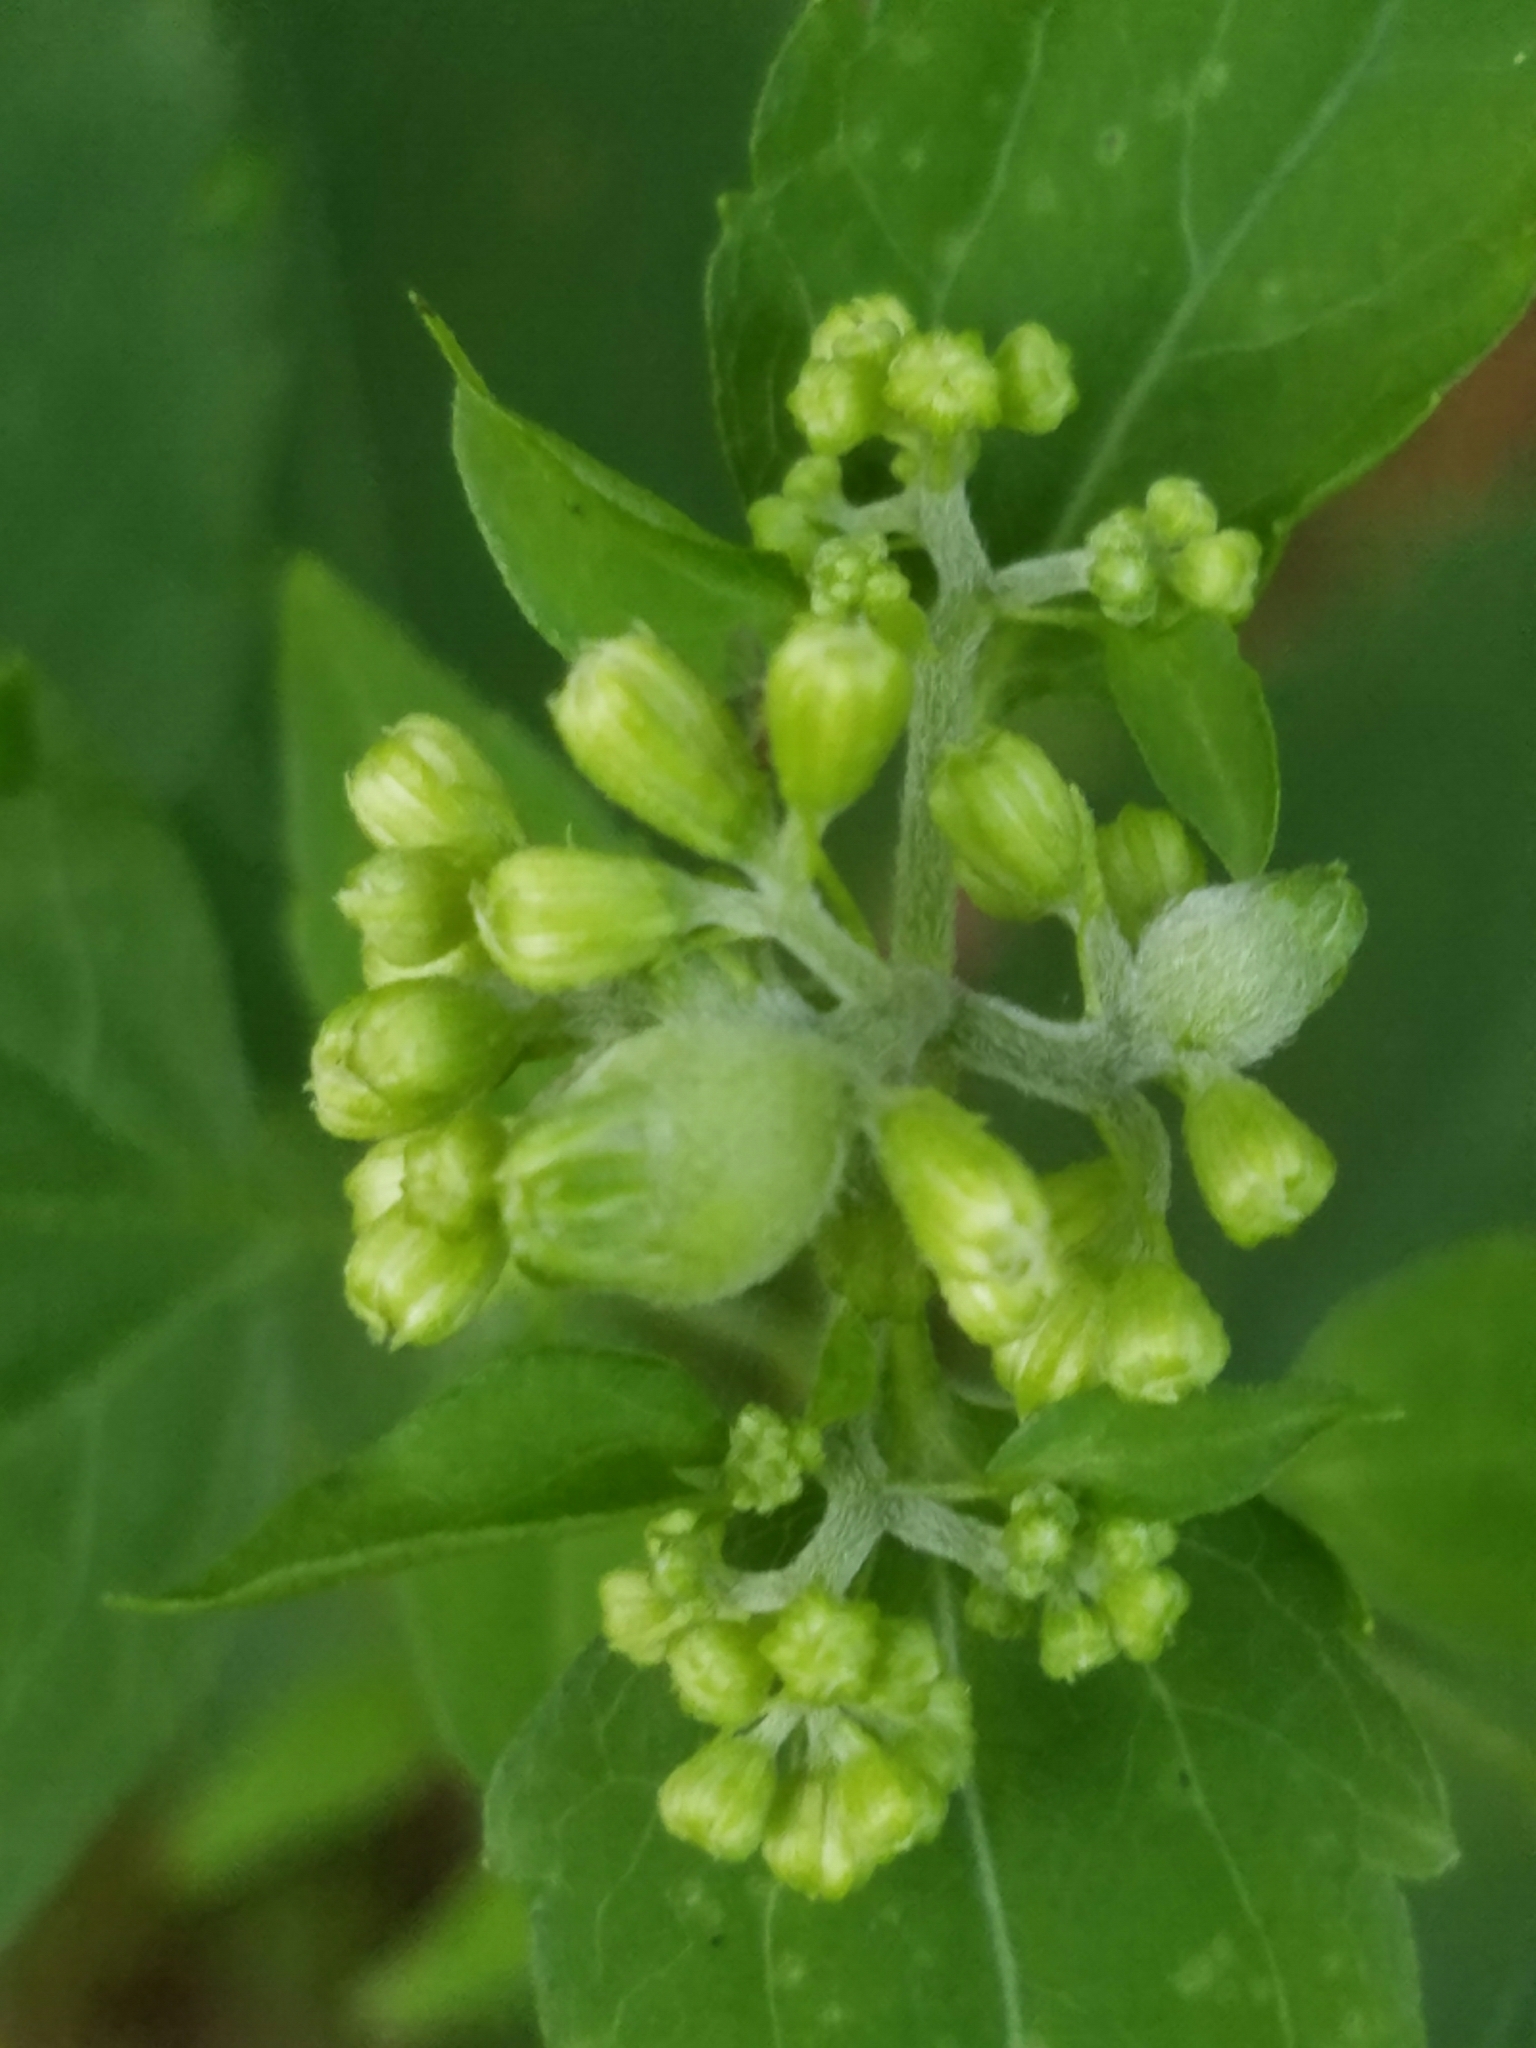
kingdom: Plantae
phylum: Tracheophyta
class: Magnoliopsida
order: Asterales
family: Asteraceae
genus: Ageratina
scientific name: Ageratina altissima
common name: White snakeroot
